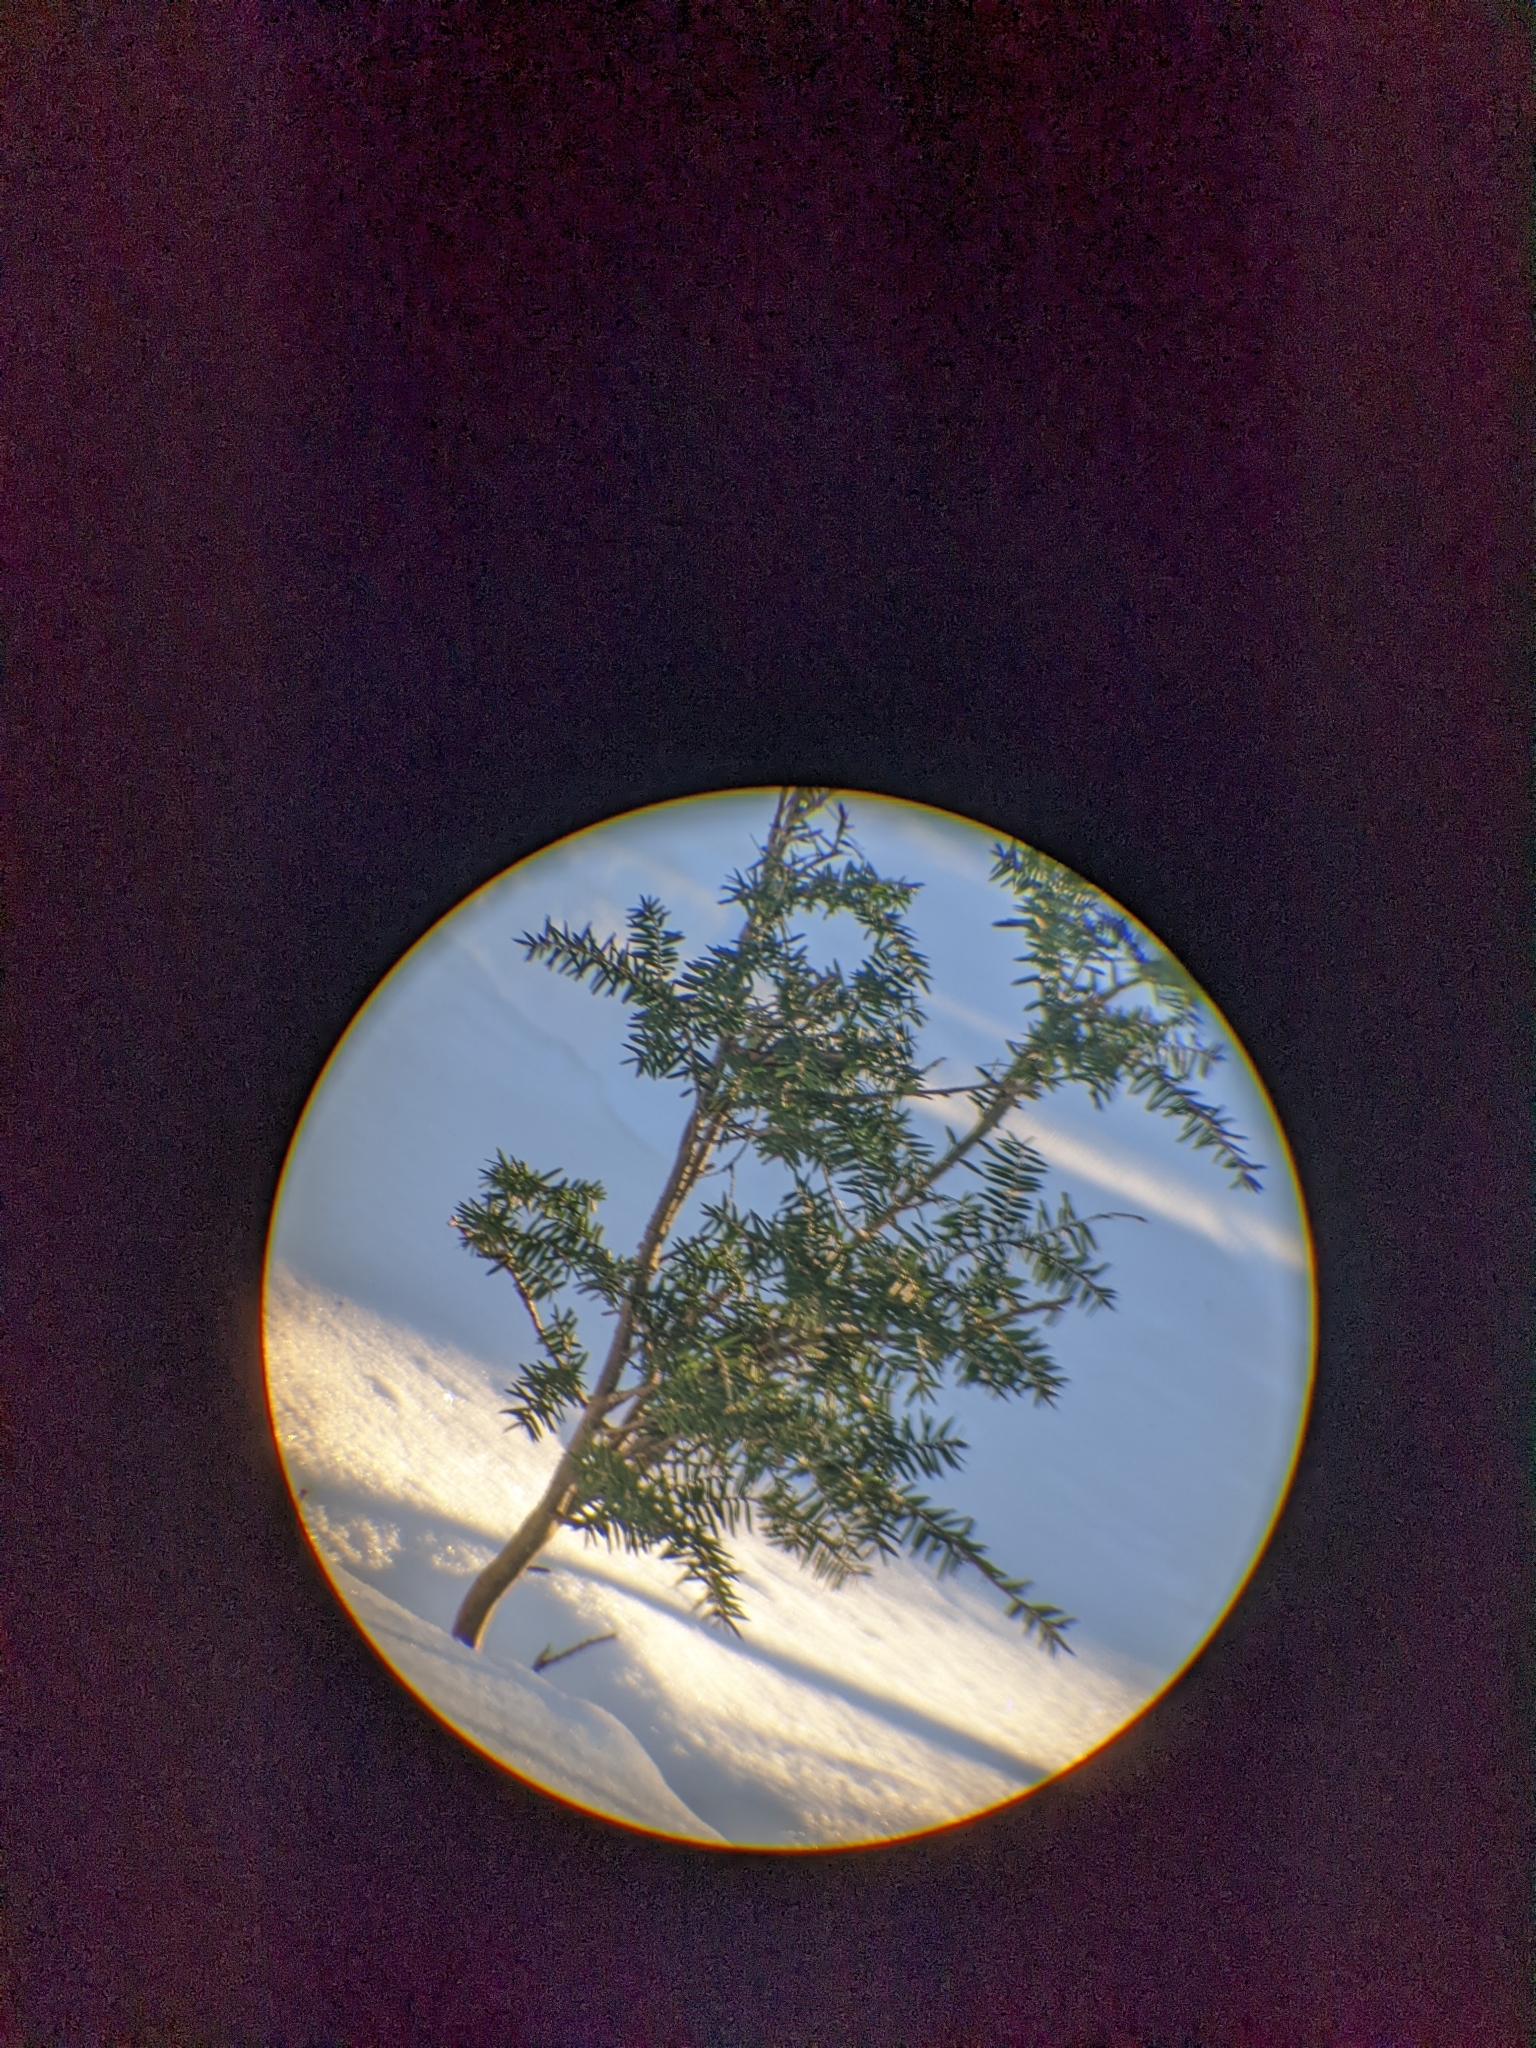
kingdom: Plantae
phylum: Tracheophyta
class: Pinopsida
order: Pinales
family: Pinaceae
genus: Tsuga
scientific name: Tsuga canadensis
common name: Eastern hemlock
